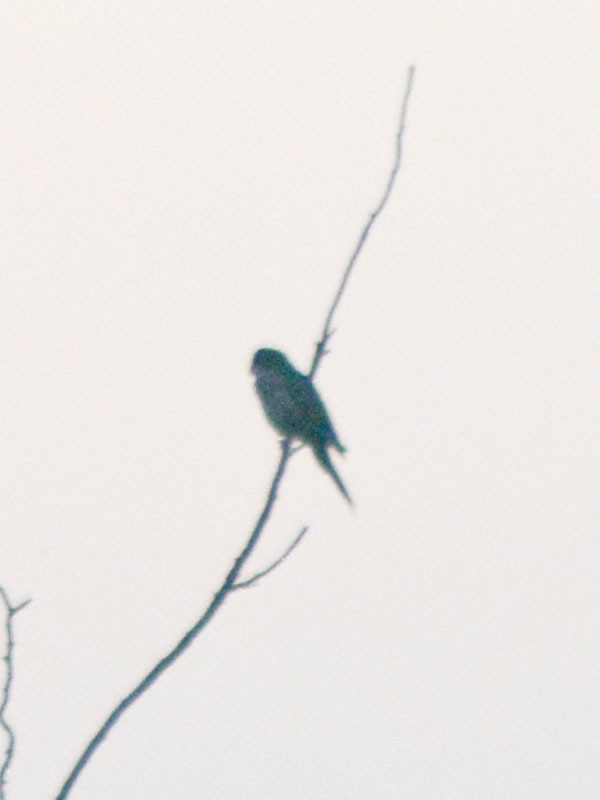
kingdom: Animalia
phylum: Chordata
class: Aves
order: Psittaciformes
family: Psittacidae
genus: Myiopsitta
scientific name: Myiopsitta monachus
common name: Monk parakeet
